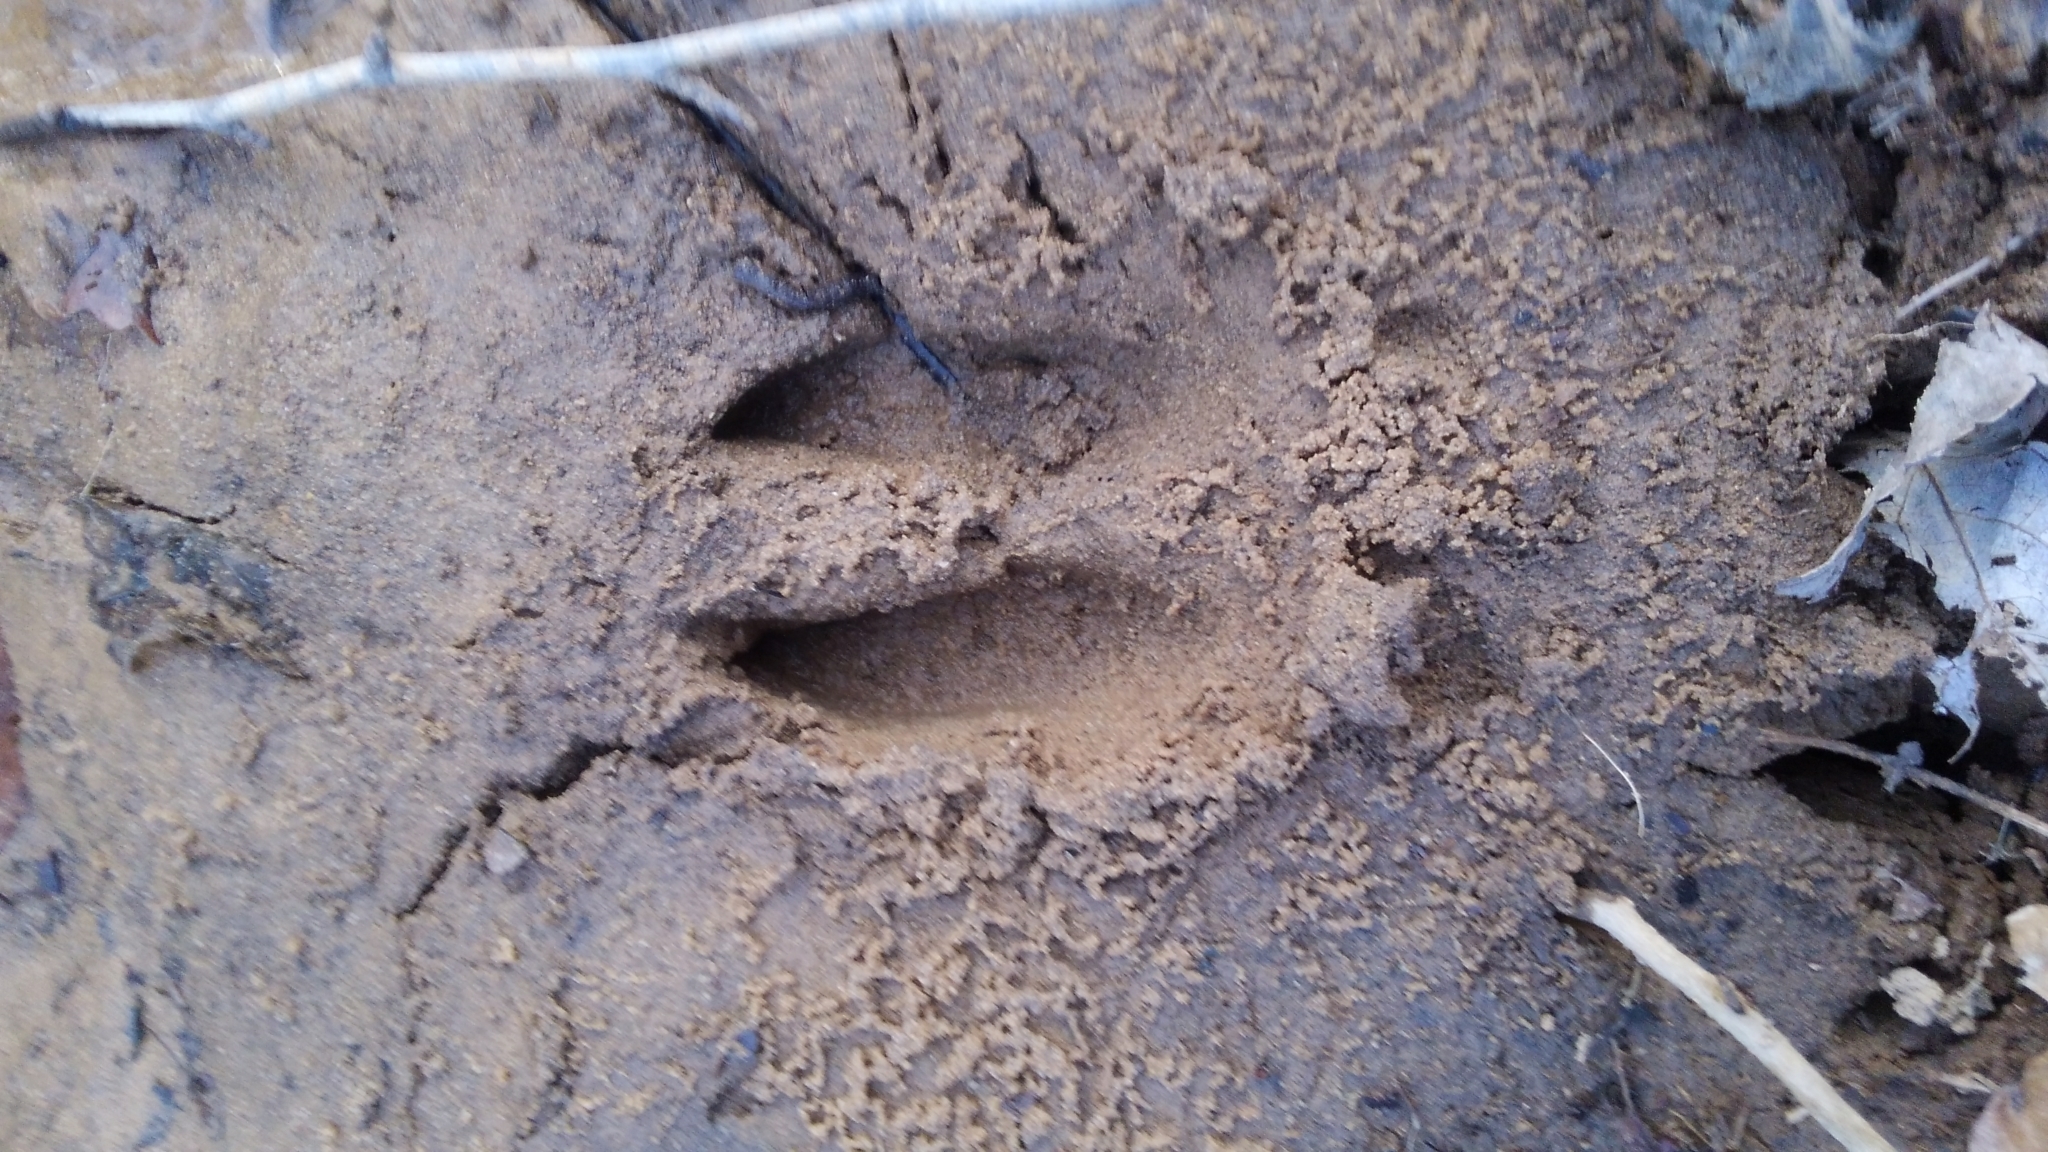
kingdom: Animalia
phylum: Chordata
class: Mammalia
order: Artiodactyla
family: Cervidae
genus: Odocoileus
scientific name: Odocoileus virginianus
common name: White-tailed deer
